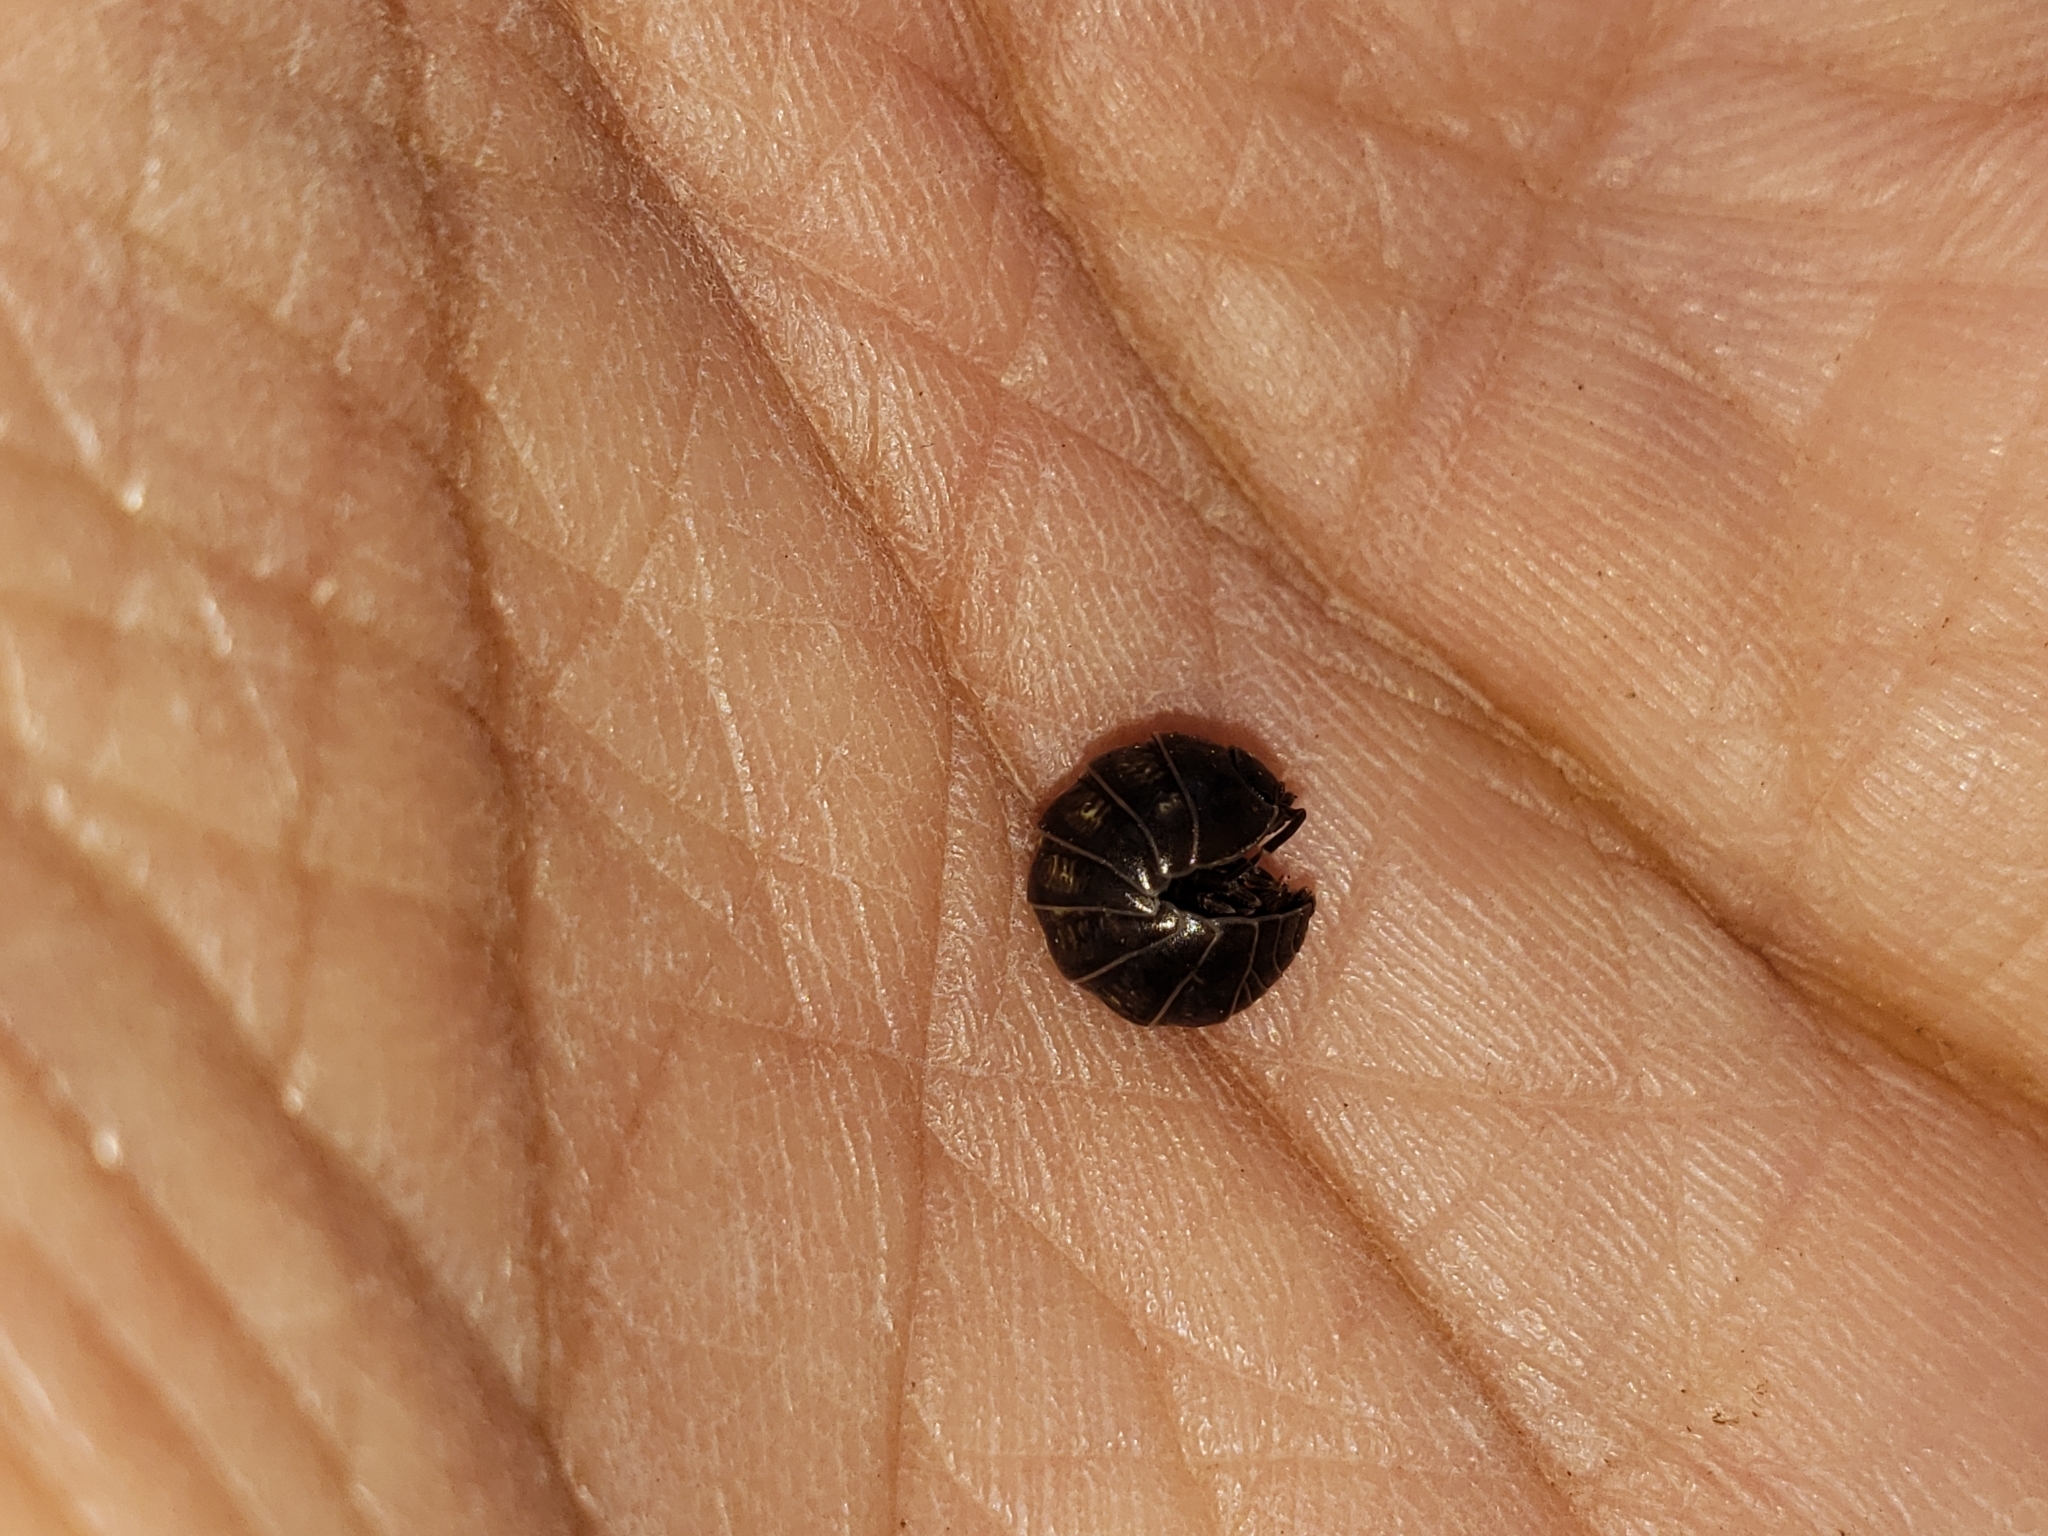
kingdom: Animalia
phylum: Arthropoda
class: Malacostraca
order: Isopoda
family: Armadillidiidae
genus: Armadillidium
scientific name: Armadillidium vulgare
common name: Common pill woodlouse
